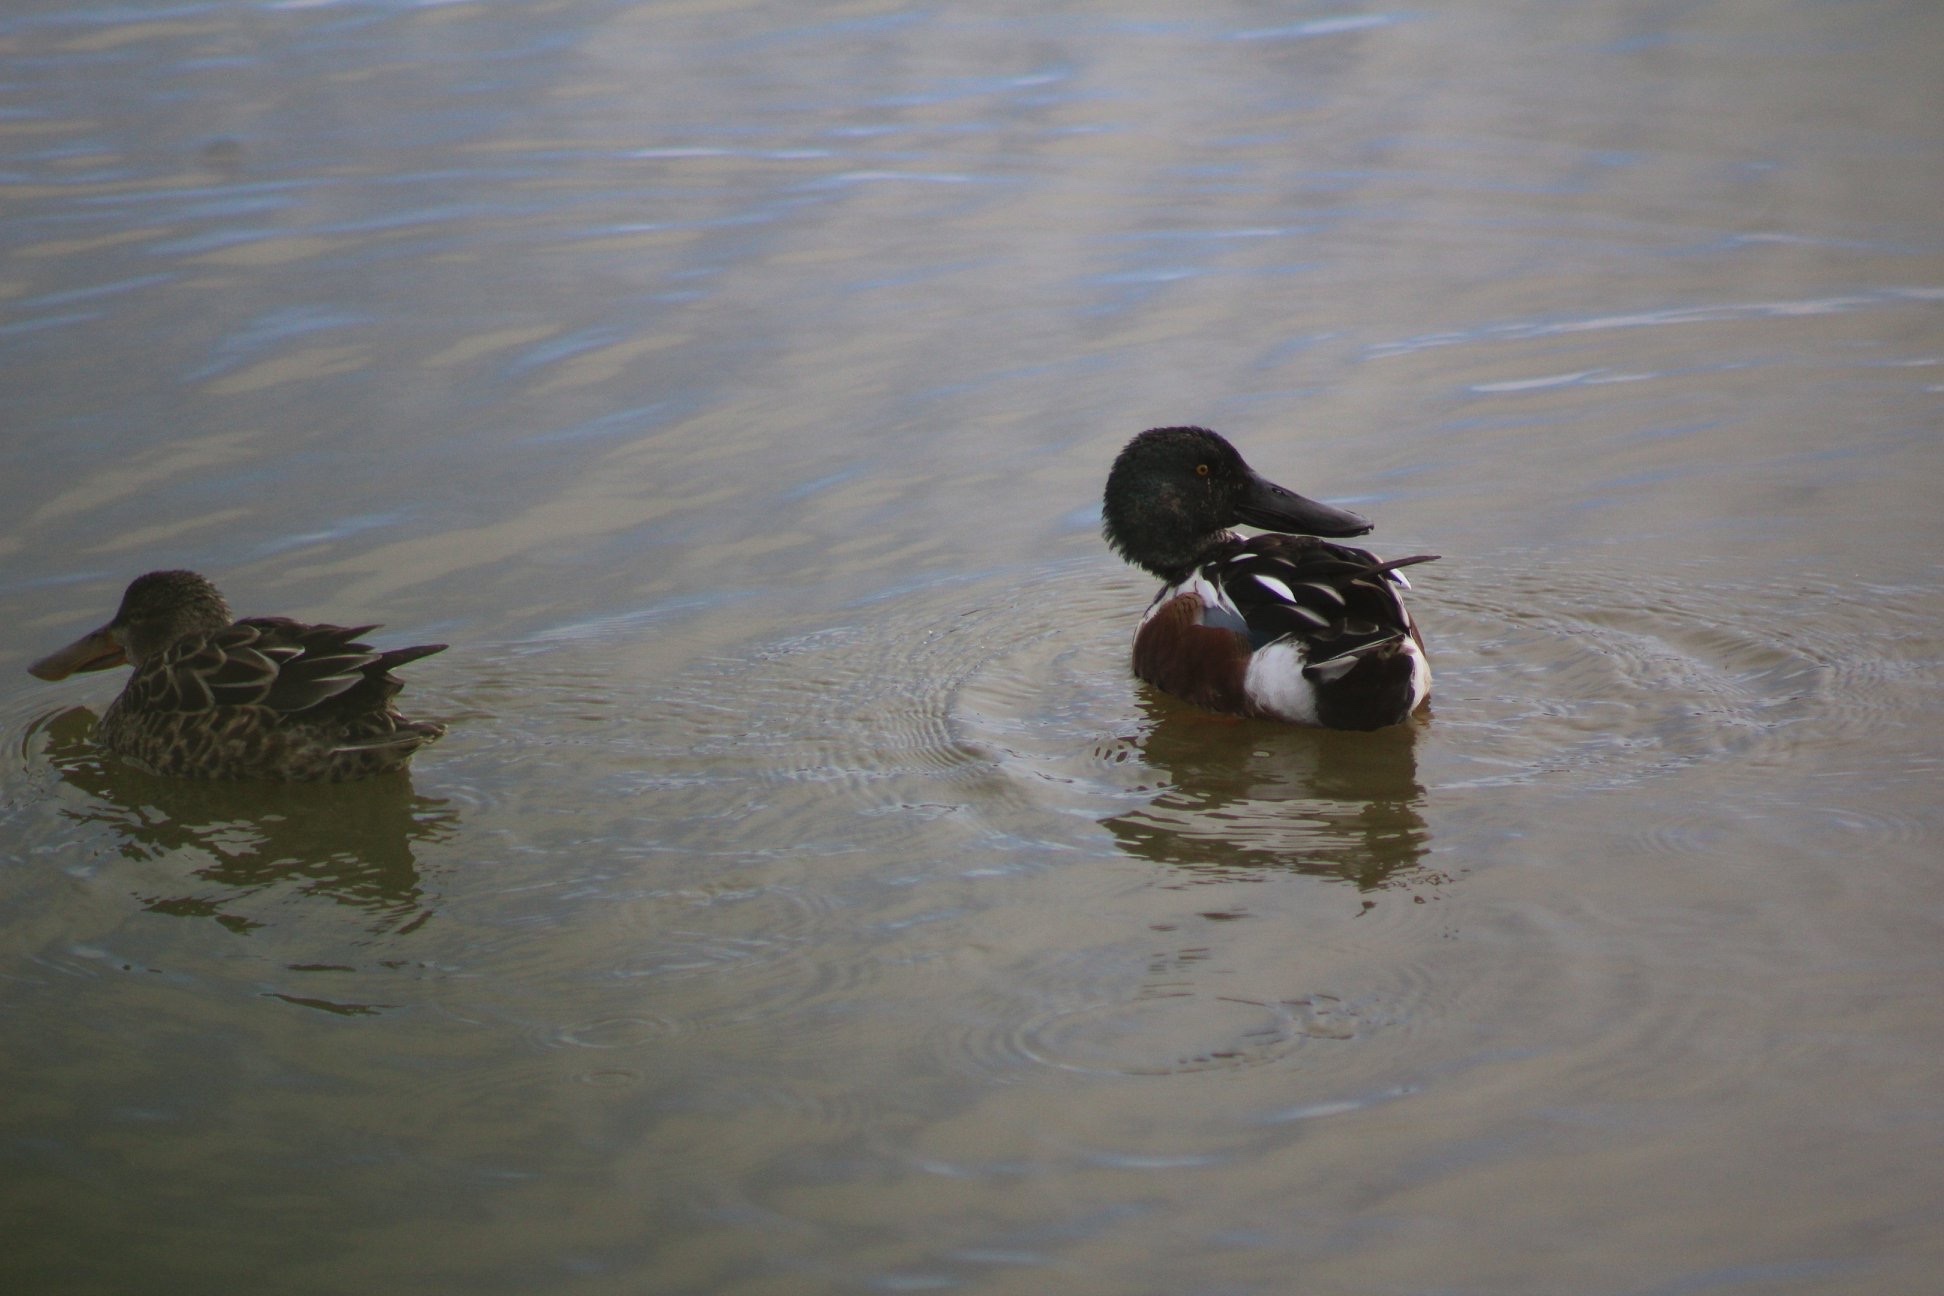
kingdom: Animalia
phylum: Chordata
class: Aves
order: Anseriformes
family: Anatidae
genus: Spatula
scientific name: Spatula clypeata
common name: Northern shoveler
